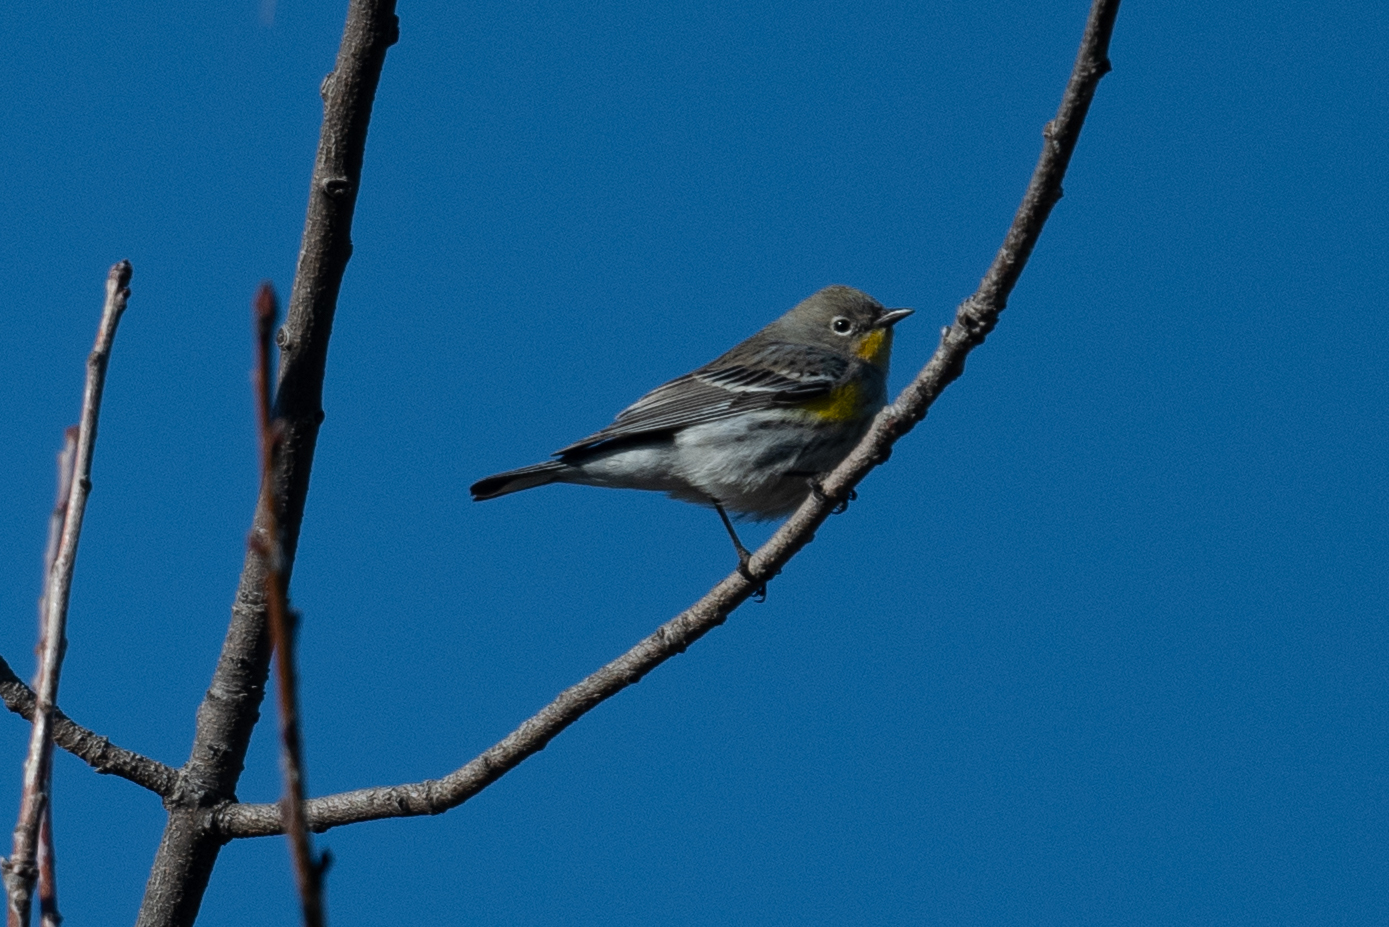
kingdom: Animalia
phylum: Chordata
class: Aves
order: Passeriformes
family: Parulidae
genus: Setophaga
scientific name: Setophaga coronata
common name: Myrtle warbler
